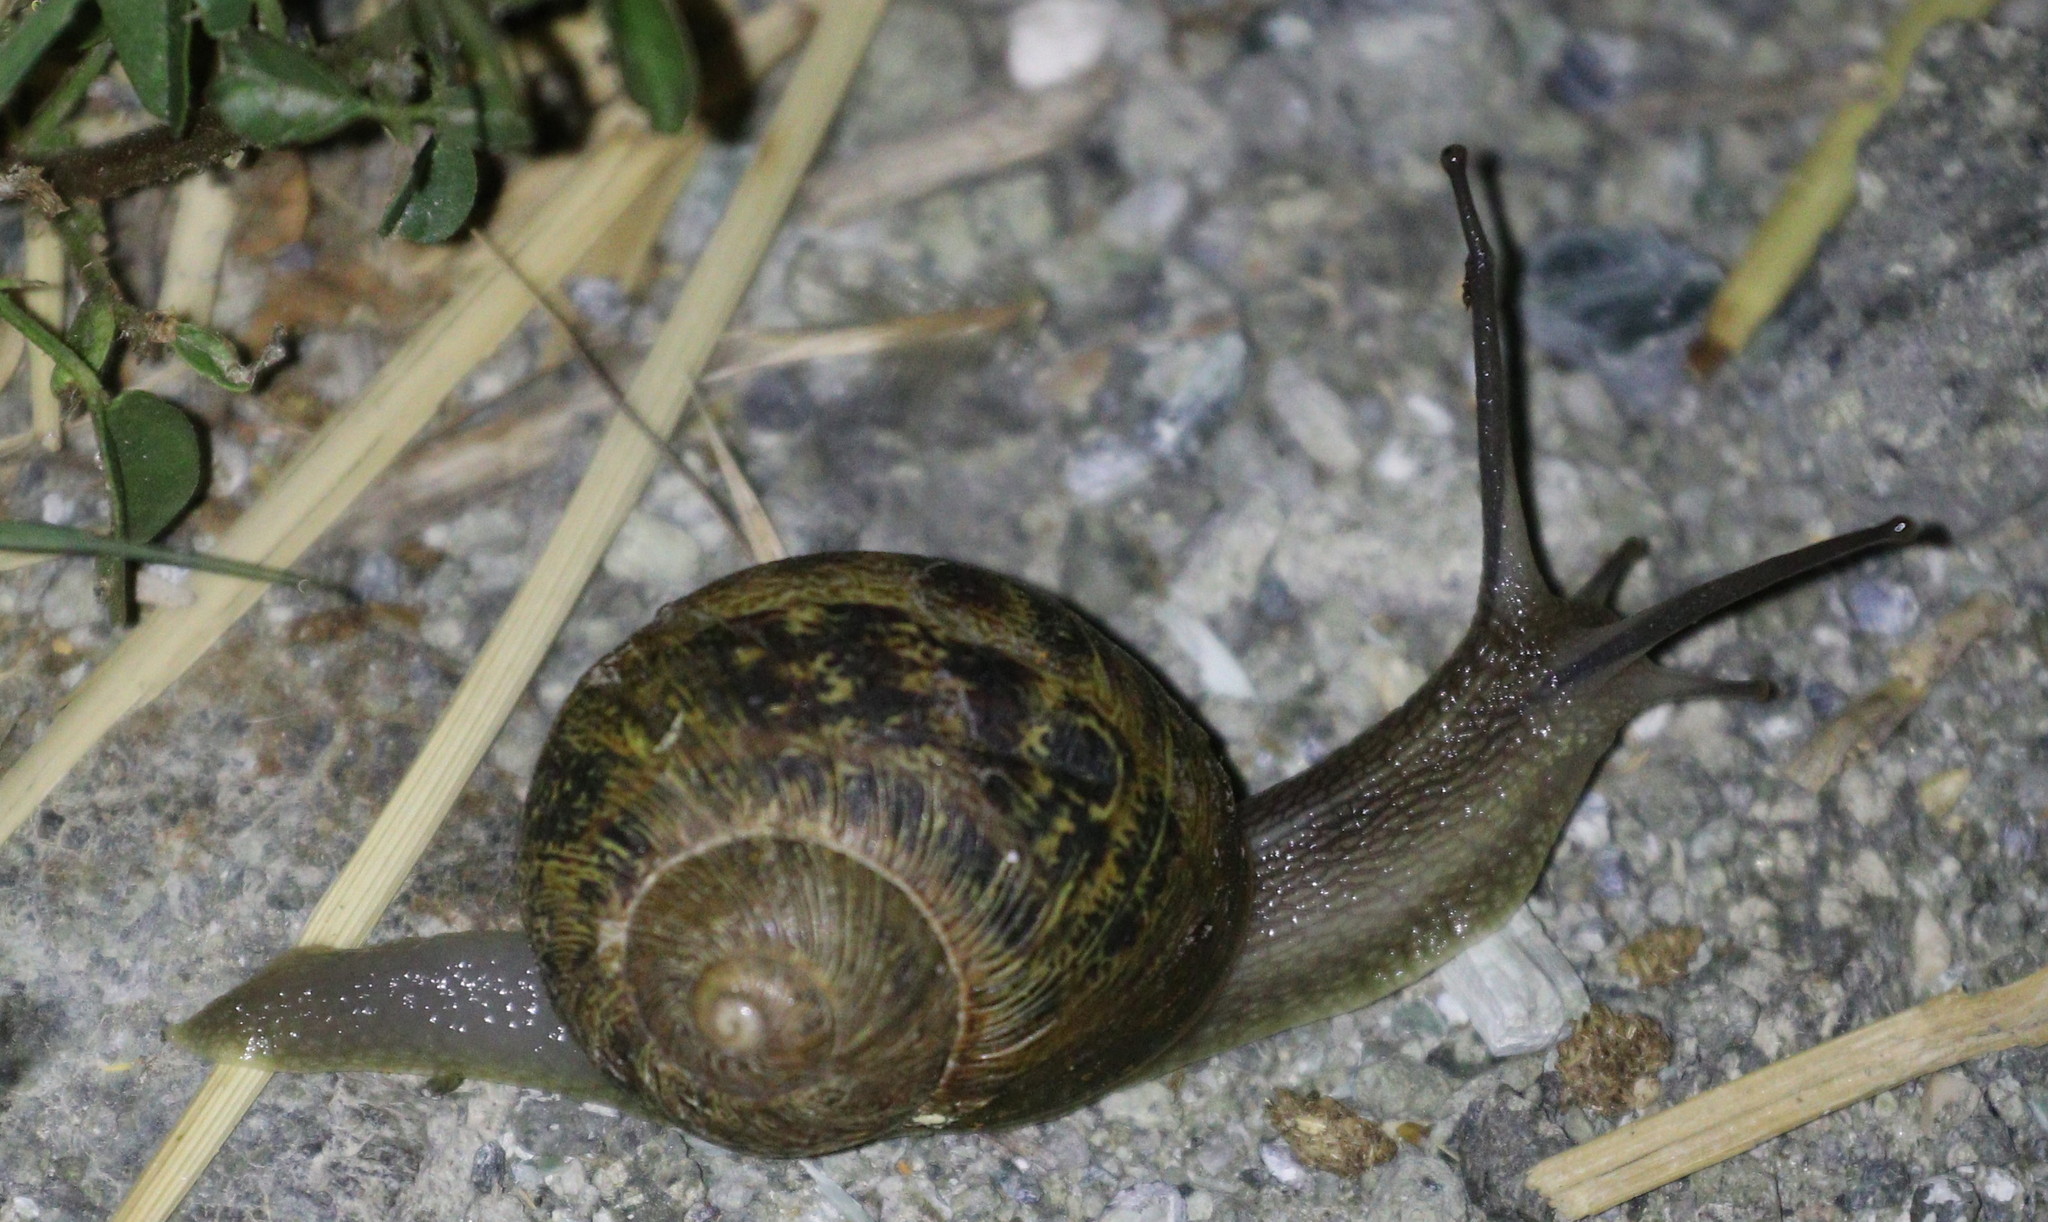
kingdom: Animalia
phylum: Mollusca
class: Gastropoda
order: Stylommatophora
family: Helicidae
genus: Cornu
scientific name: Cornu aspersum
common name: Brown garden snail
